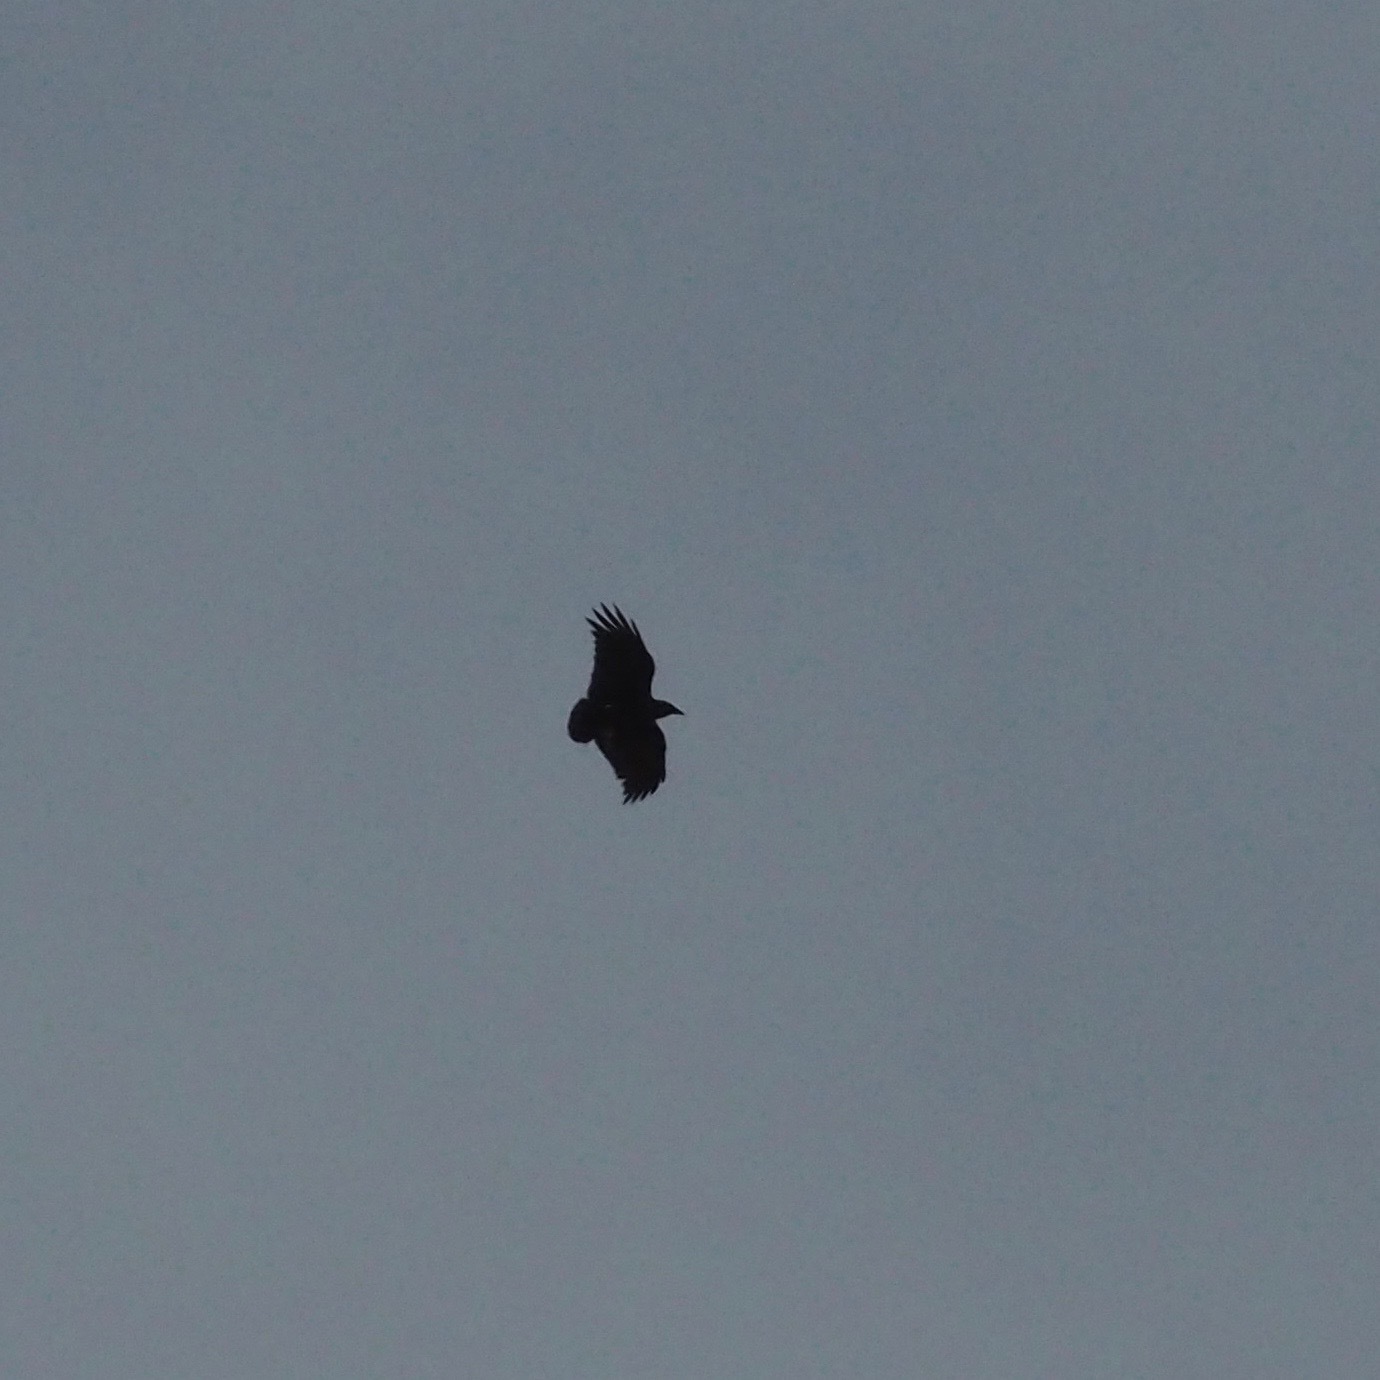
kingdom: Animalia
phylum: Chordata
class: Aves
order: Passeriformes
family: Corvidae
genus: Corvus
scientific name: Corvus rhipidurus
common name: Fan-tailed raven
